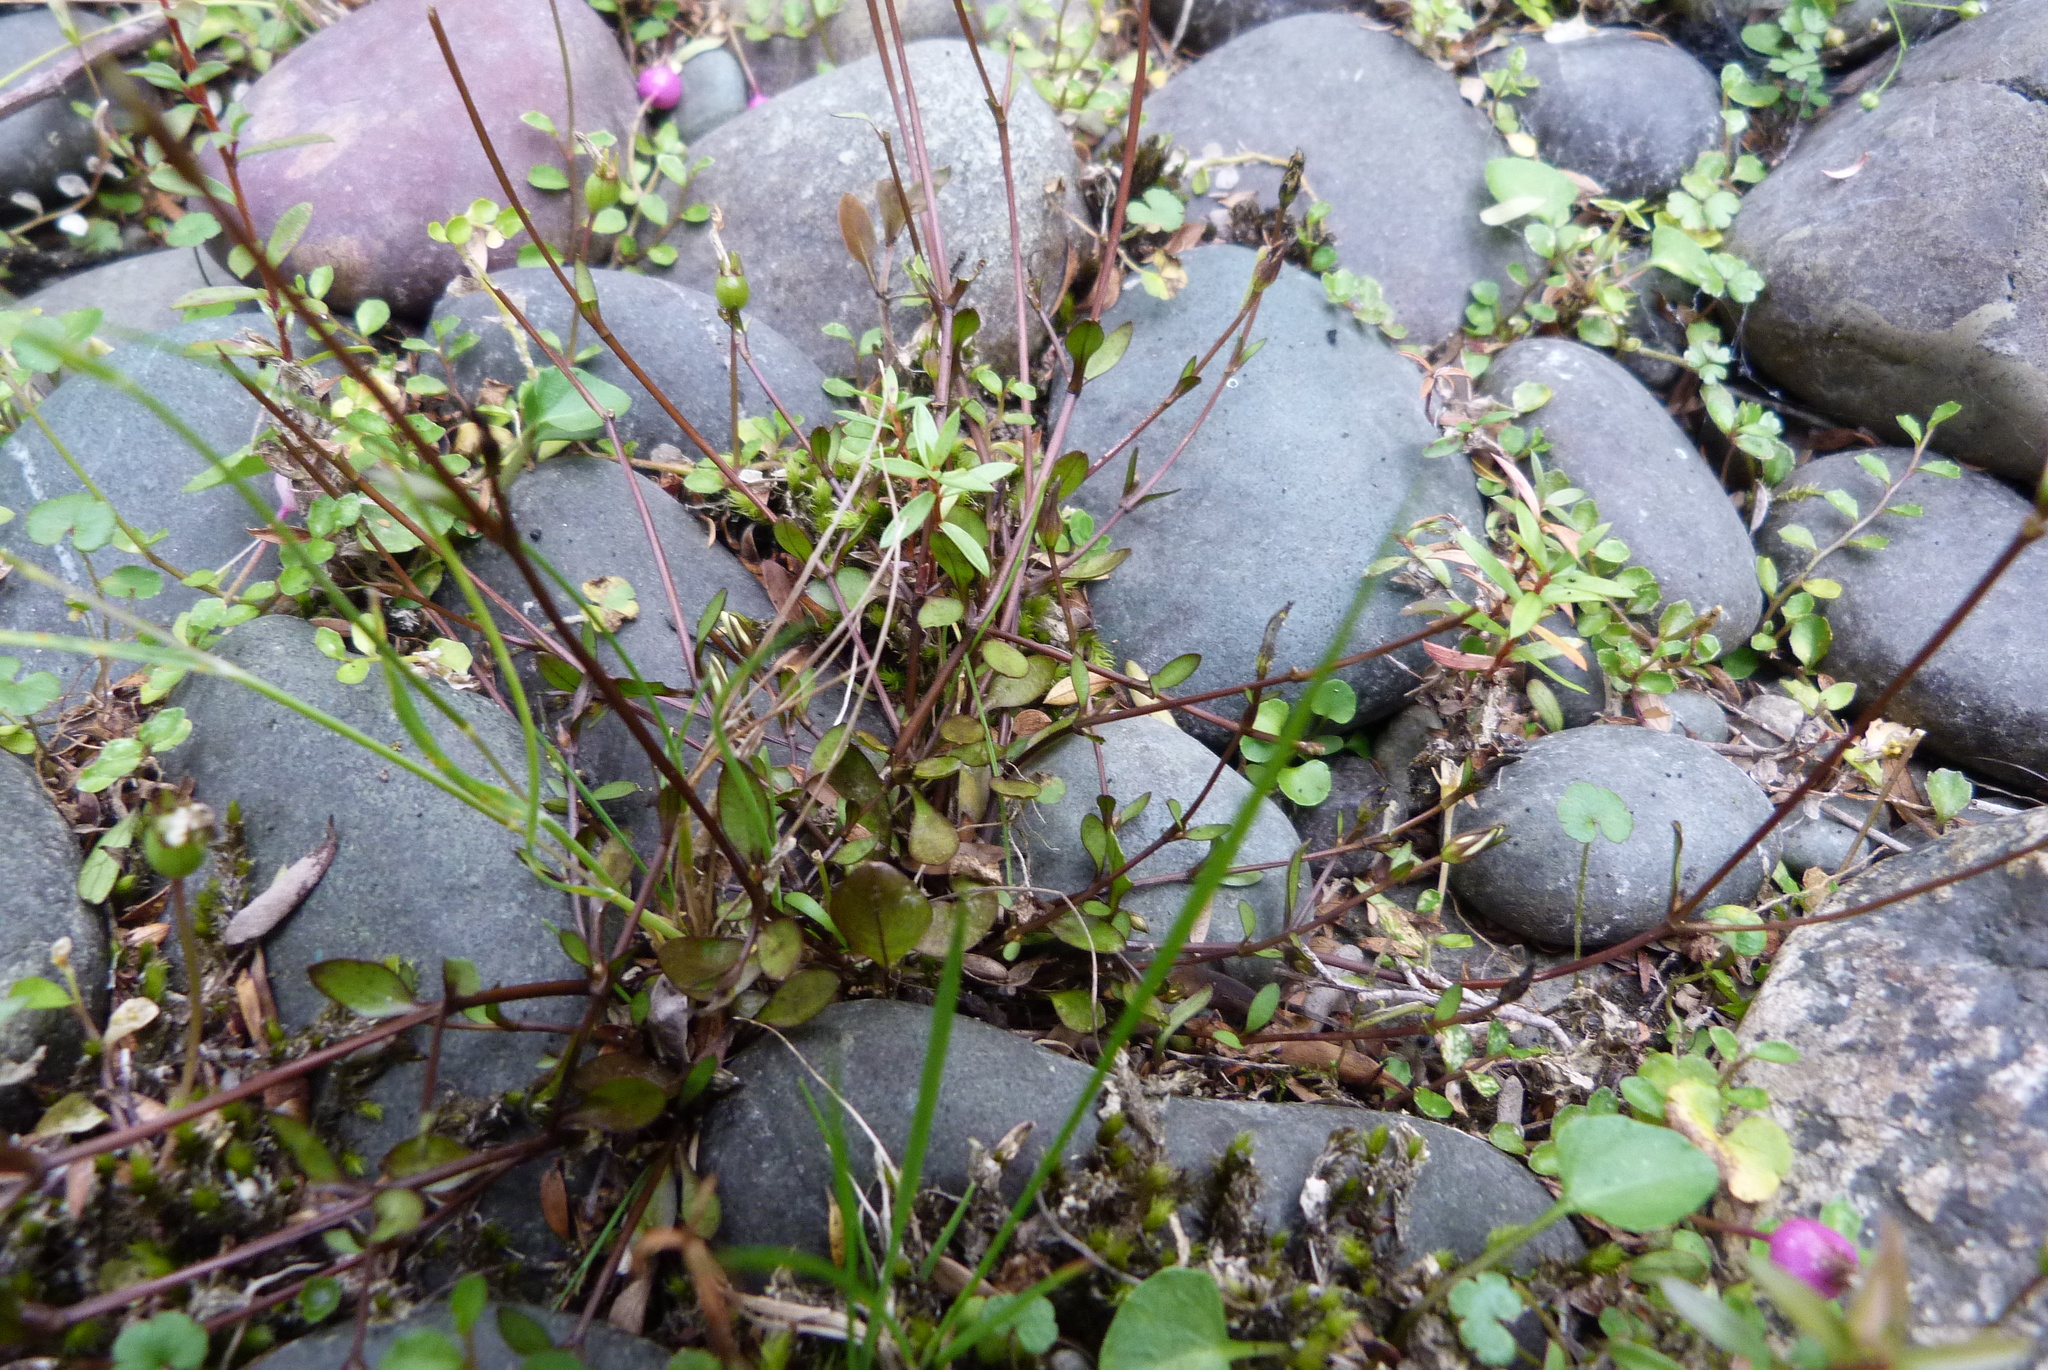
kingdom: Plantae
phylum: Tracheophyta
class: Magnoliopsida
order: Gentianales
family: Gentianaceae
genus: Gentianella
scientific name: Gentianella grisebachii
